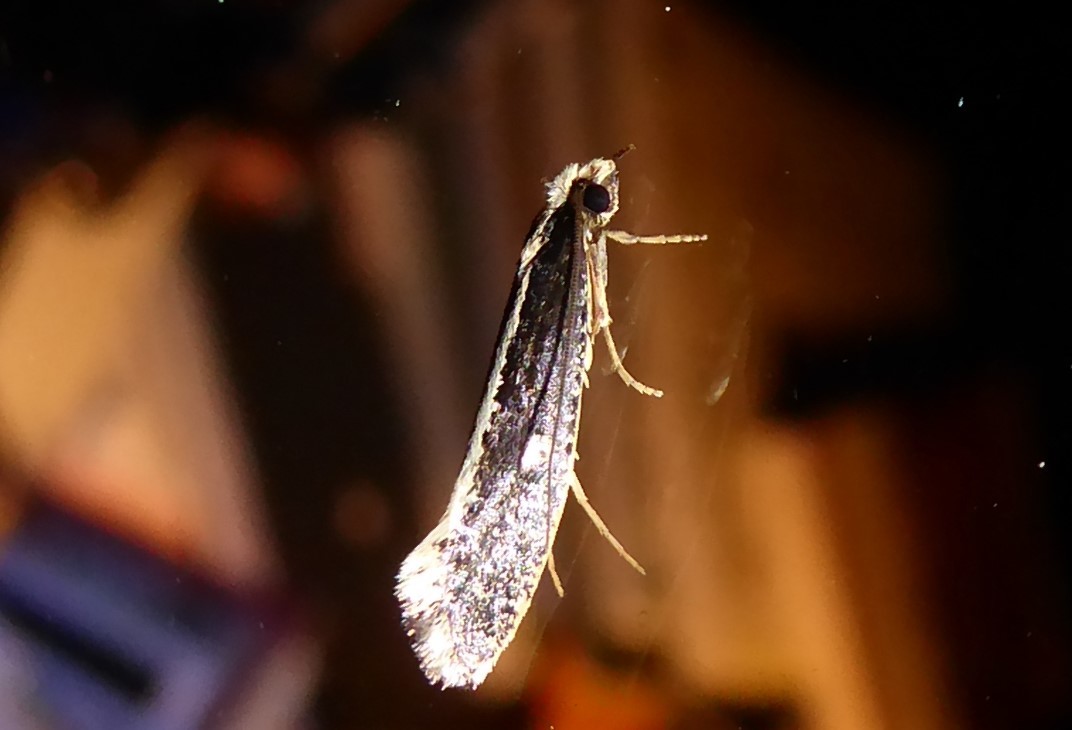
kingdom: Animalia
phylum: Arthropoda
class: Insecta
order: Lepidoptera
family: Tineidae
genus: Monopis
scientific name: Monopis ethelella
